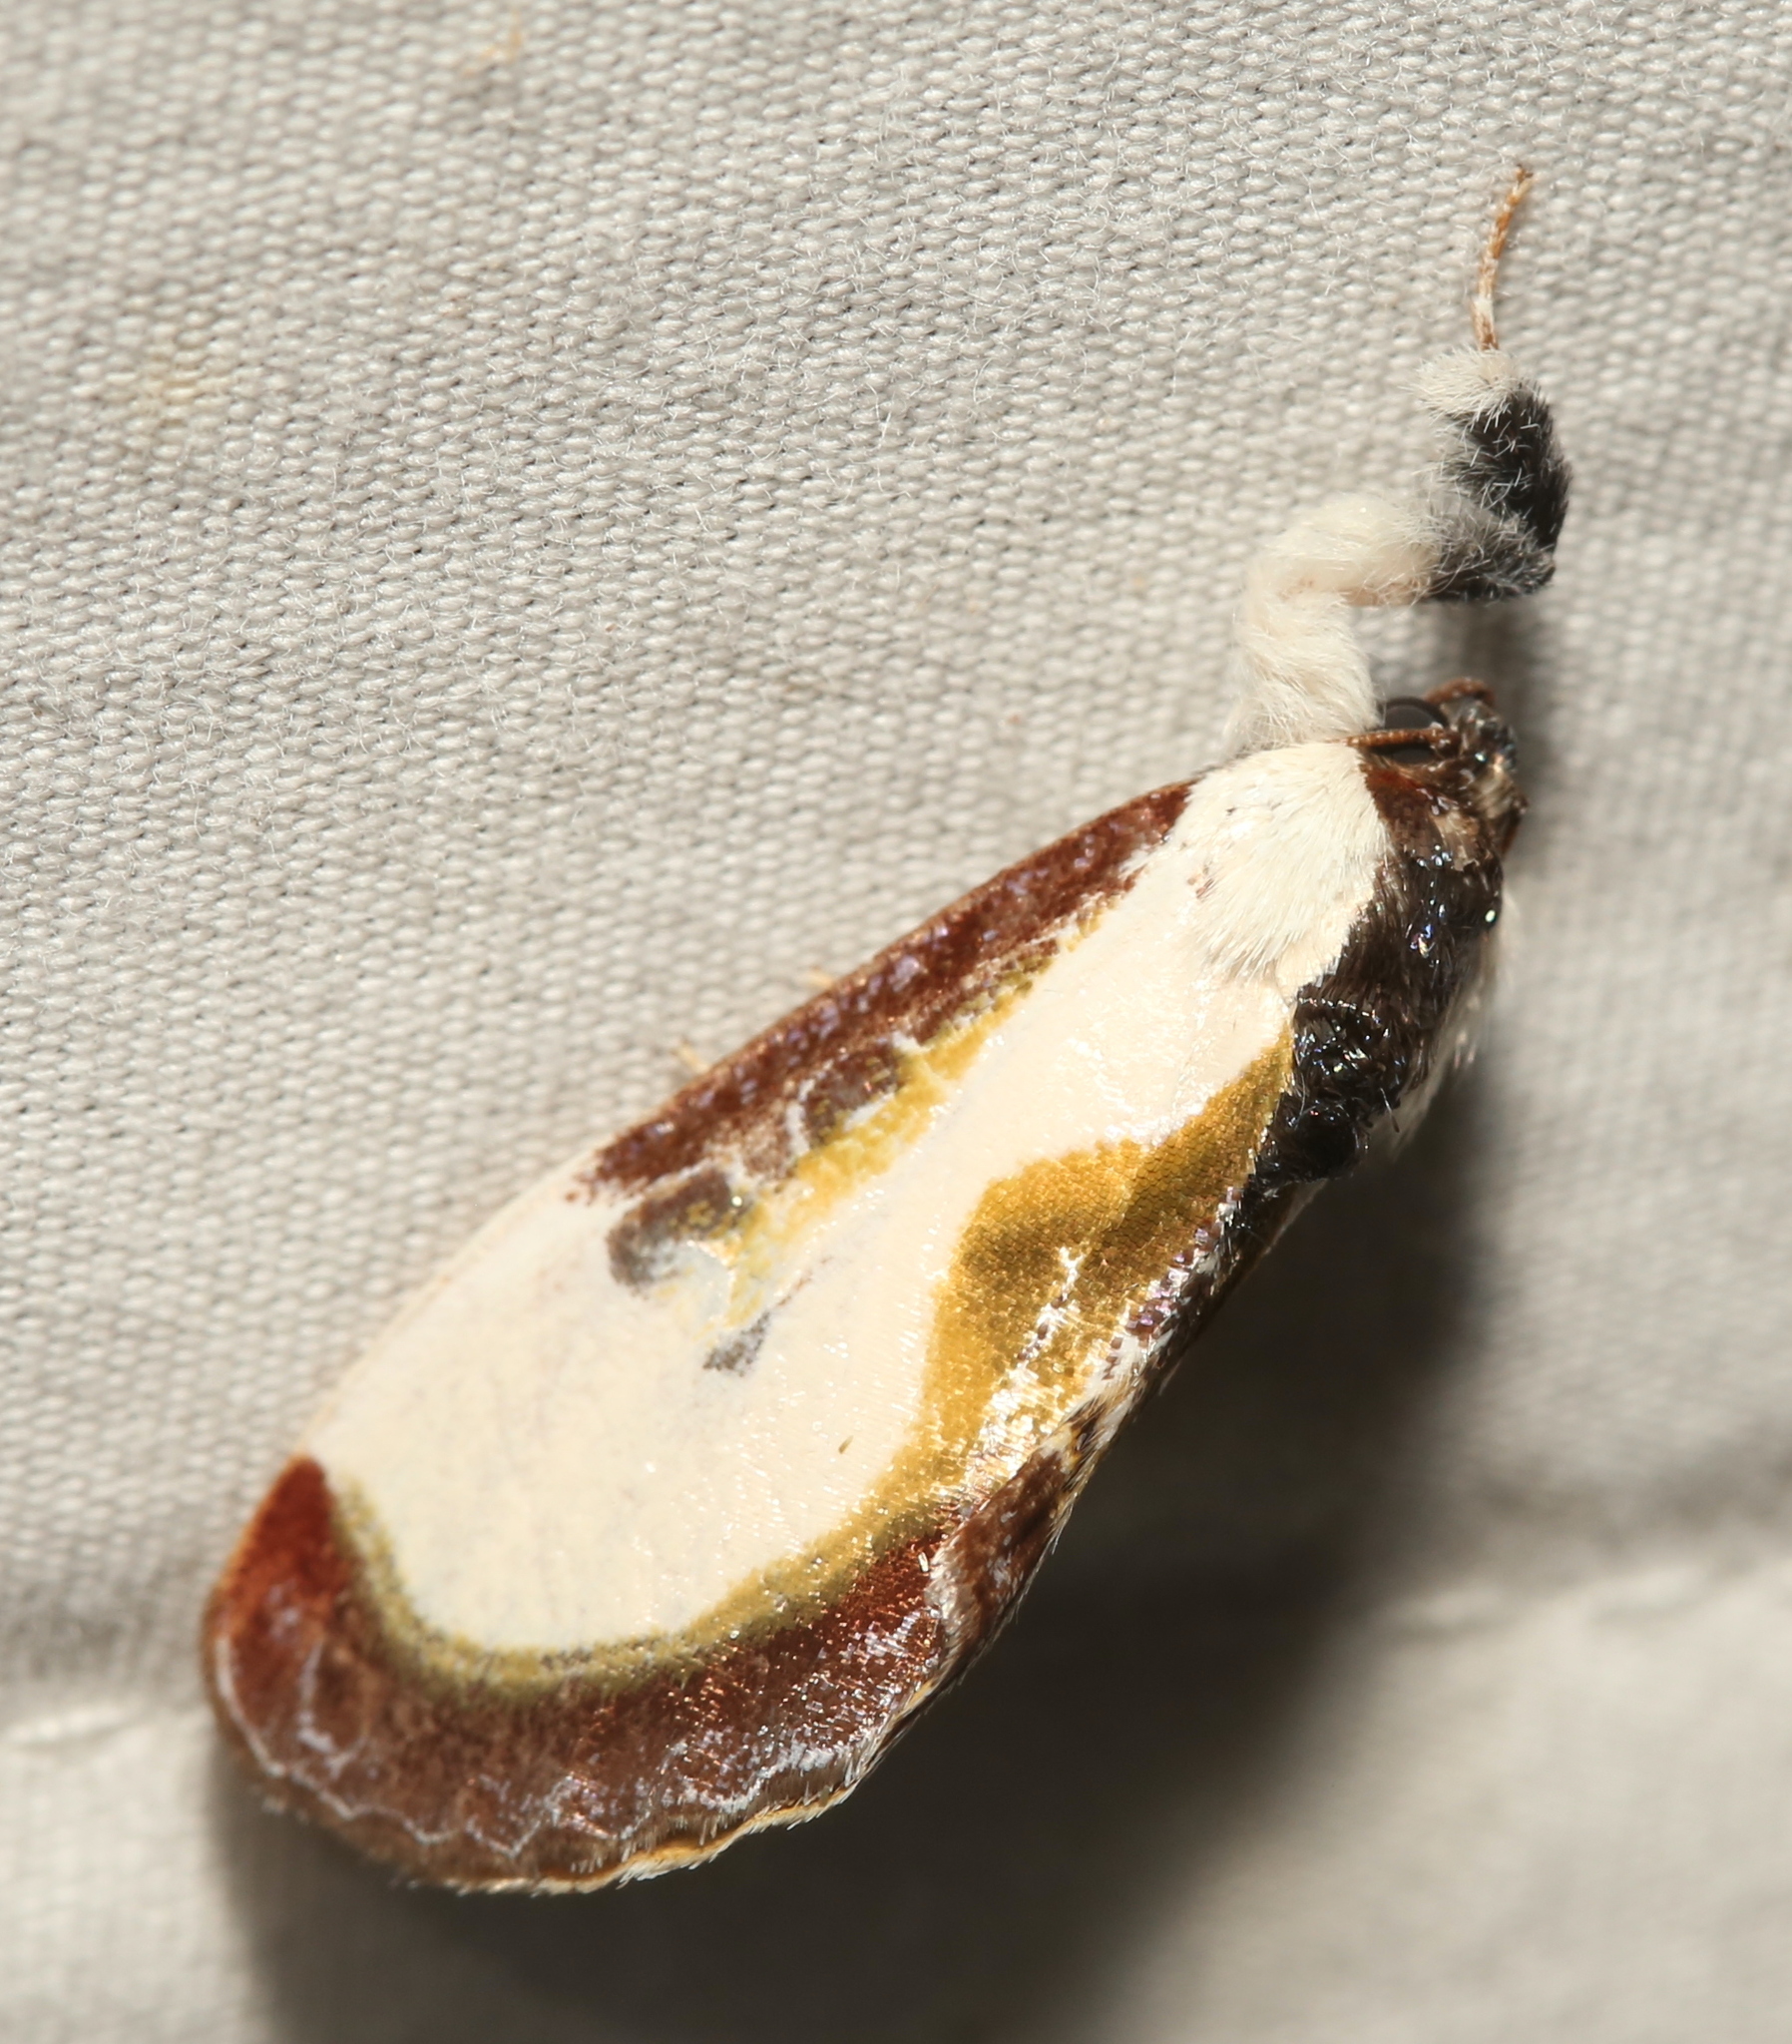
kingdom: Animalia
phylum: Arthropoda
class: Insecta
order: Lepidoptera
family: Noctuidae
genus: Eudryas
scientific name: Eudryas grata
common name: Beautiful wood-nymph
